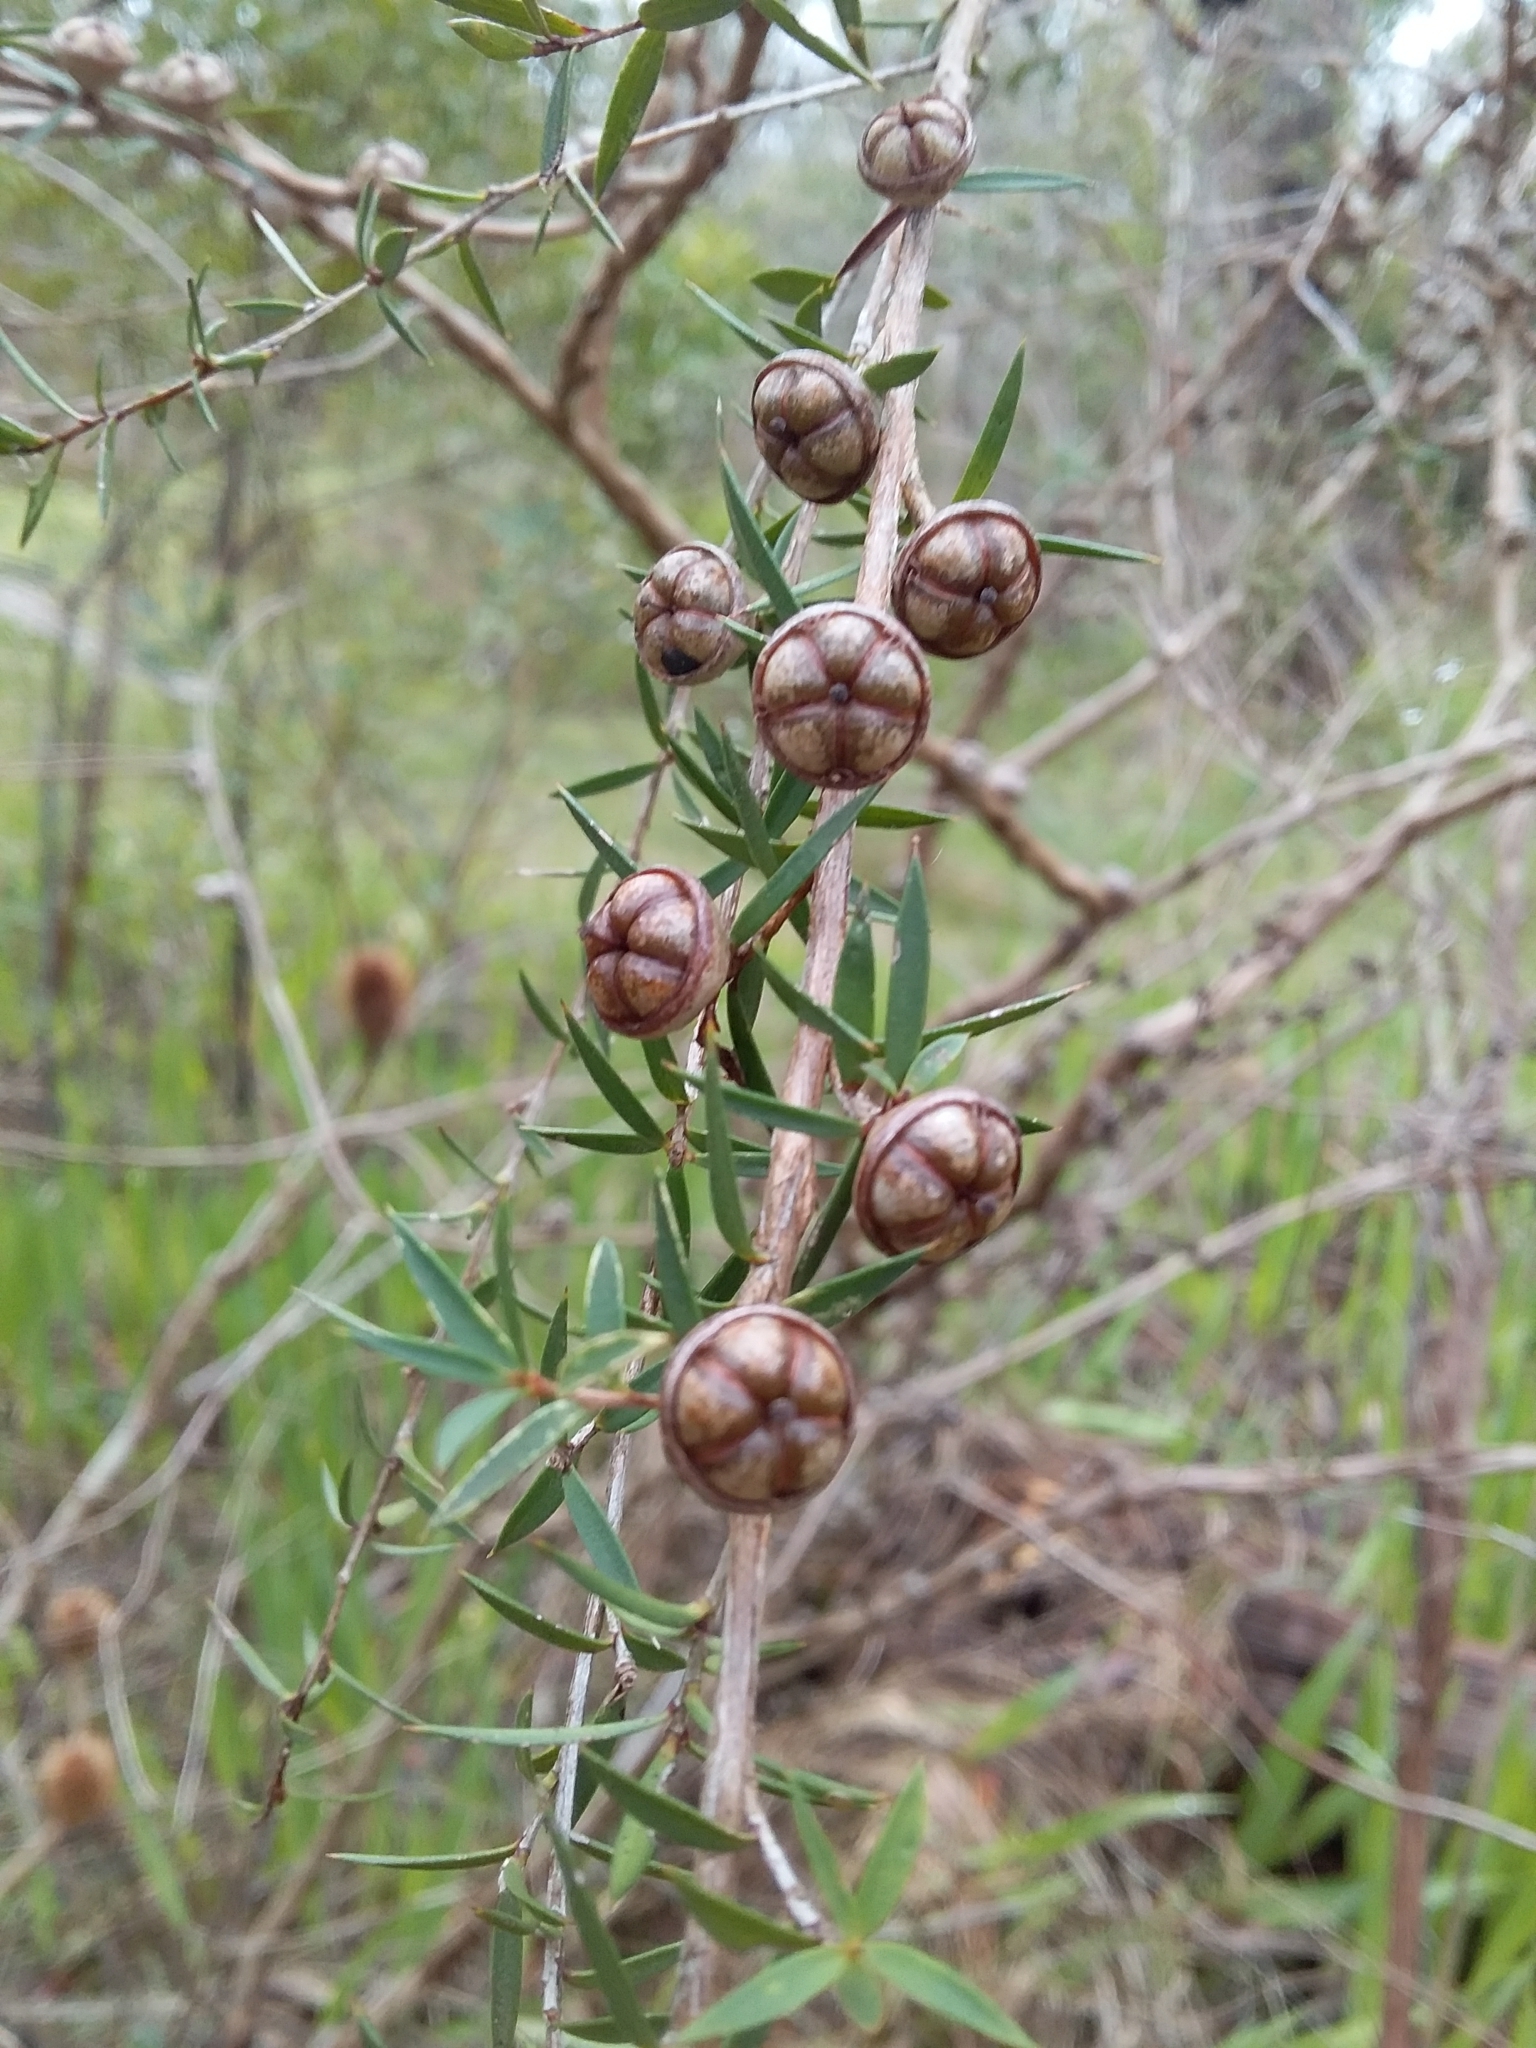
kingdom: Plantae
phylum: Tracheophyta
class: Magnoliopsida
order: Myrtales
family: Myrtaceae
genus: Leptospermum
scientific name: Leptospermum continentale
